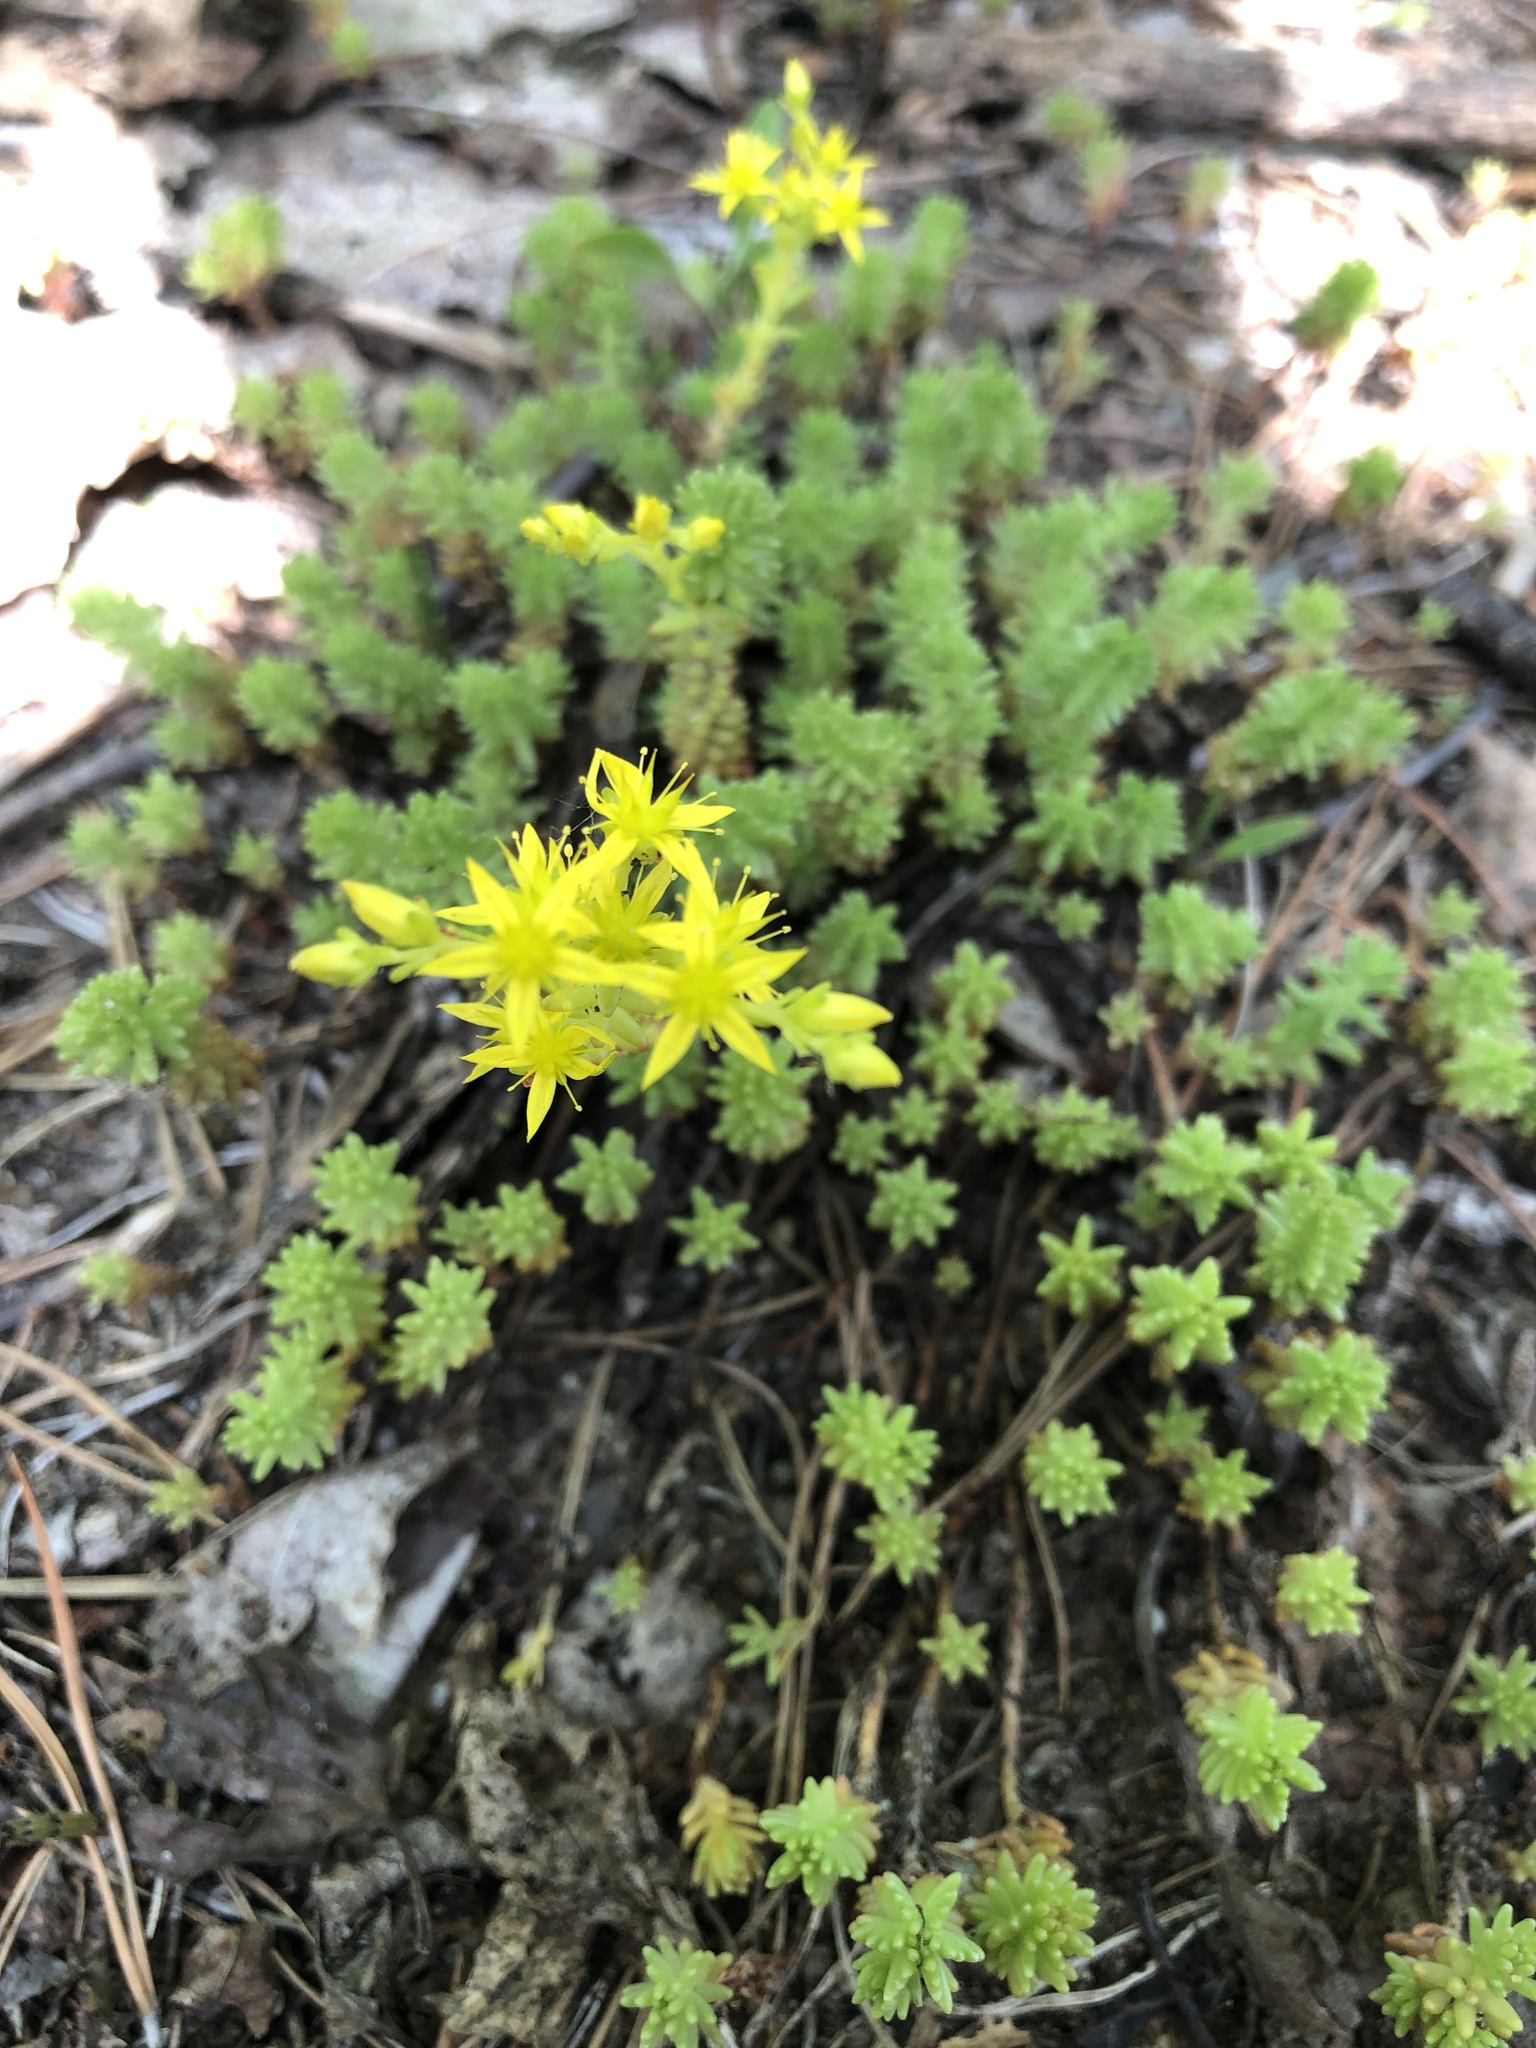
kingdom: Plantae
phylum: Tracheophyta
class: Magnoliopsida
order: Saxifragales
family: Crassulaceae
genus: Sedum
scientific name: Sedum sexangulare
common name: Tasteless stonecrop
